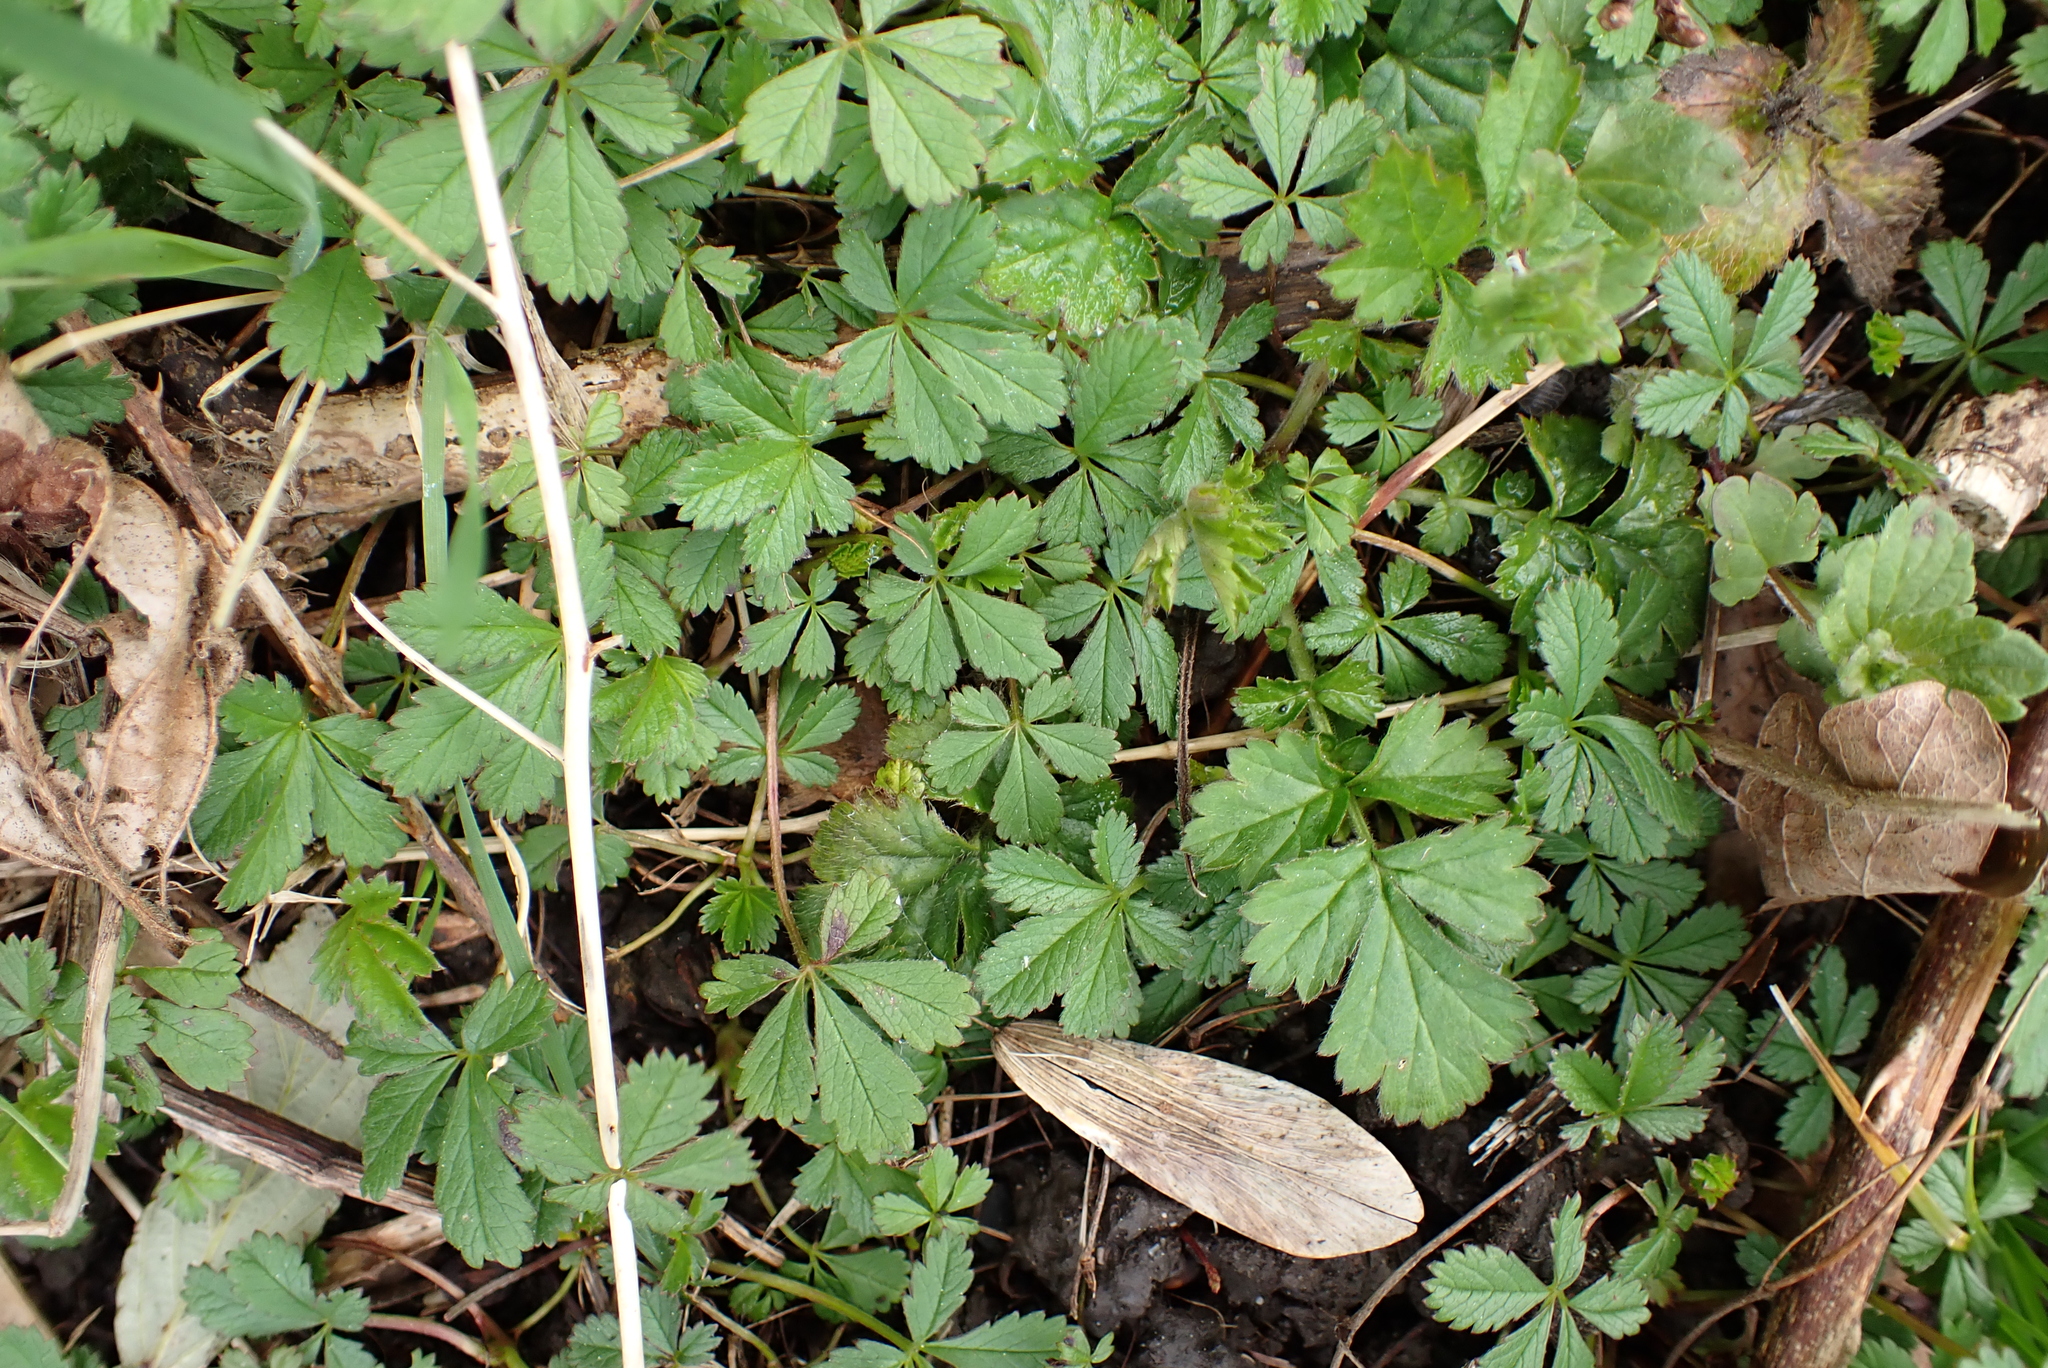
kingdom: Plantae
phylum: Tracheophyta
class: Magnoliopsida
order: Rosales
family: Rosaceae
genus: Potentilla
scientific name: Potentilla reptans
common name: Creeping cinquefoil
